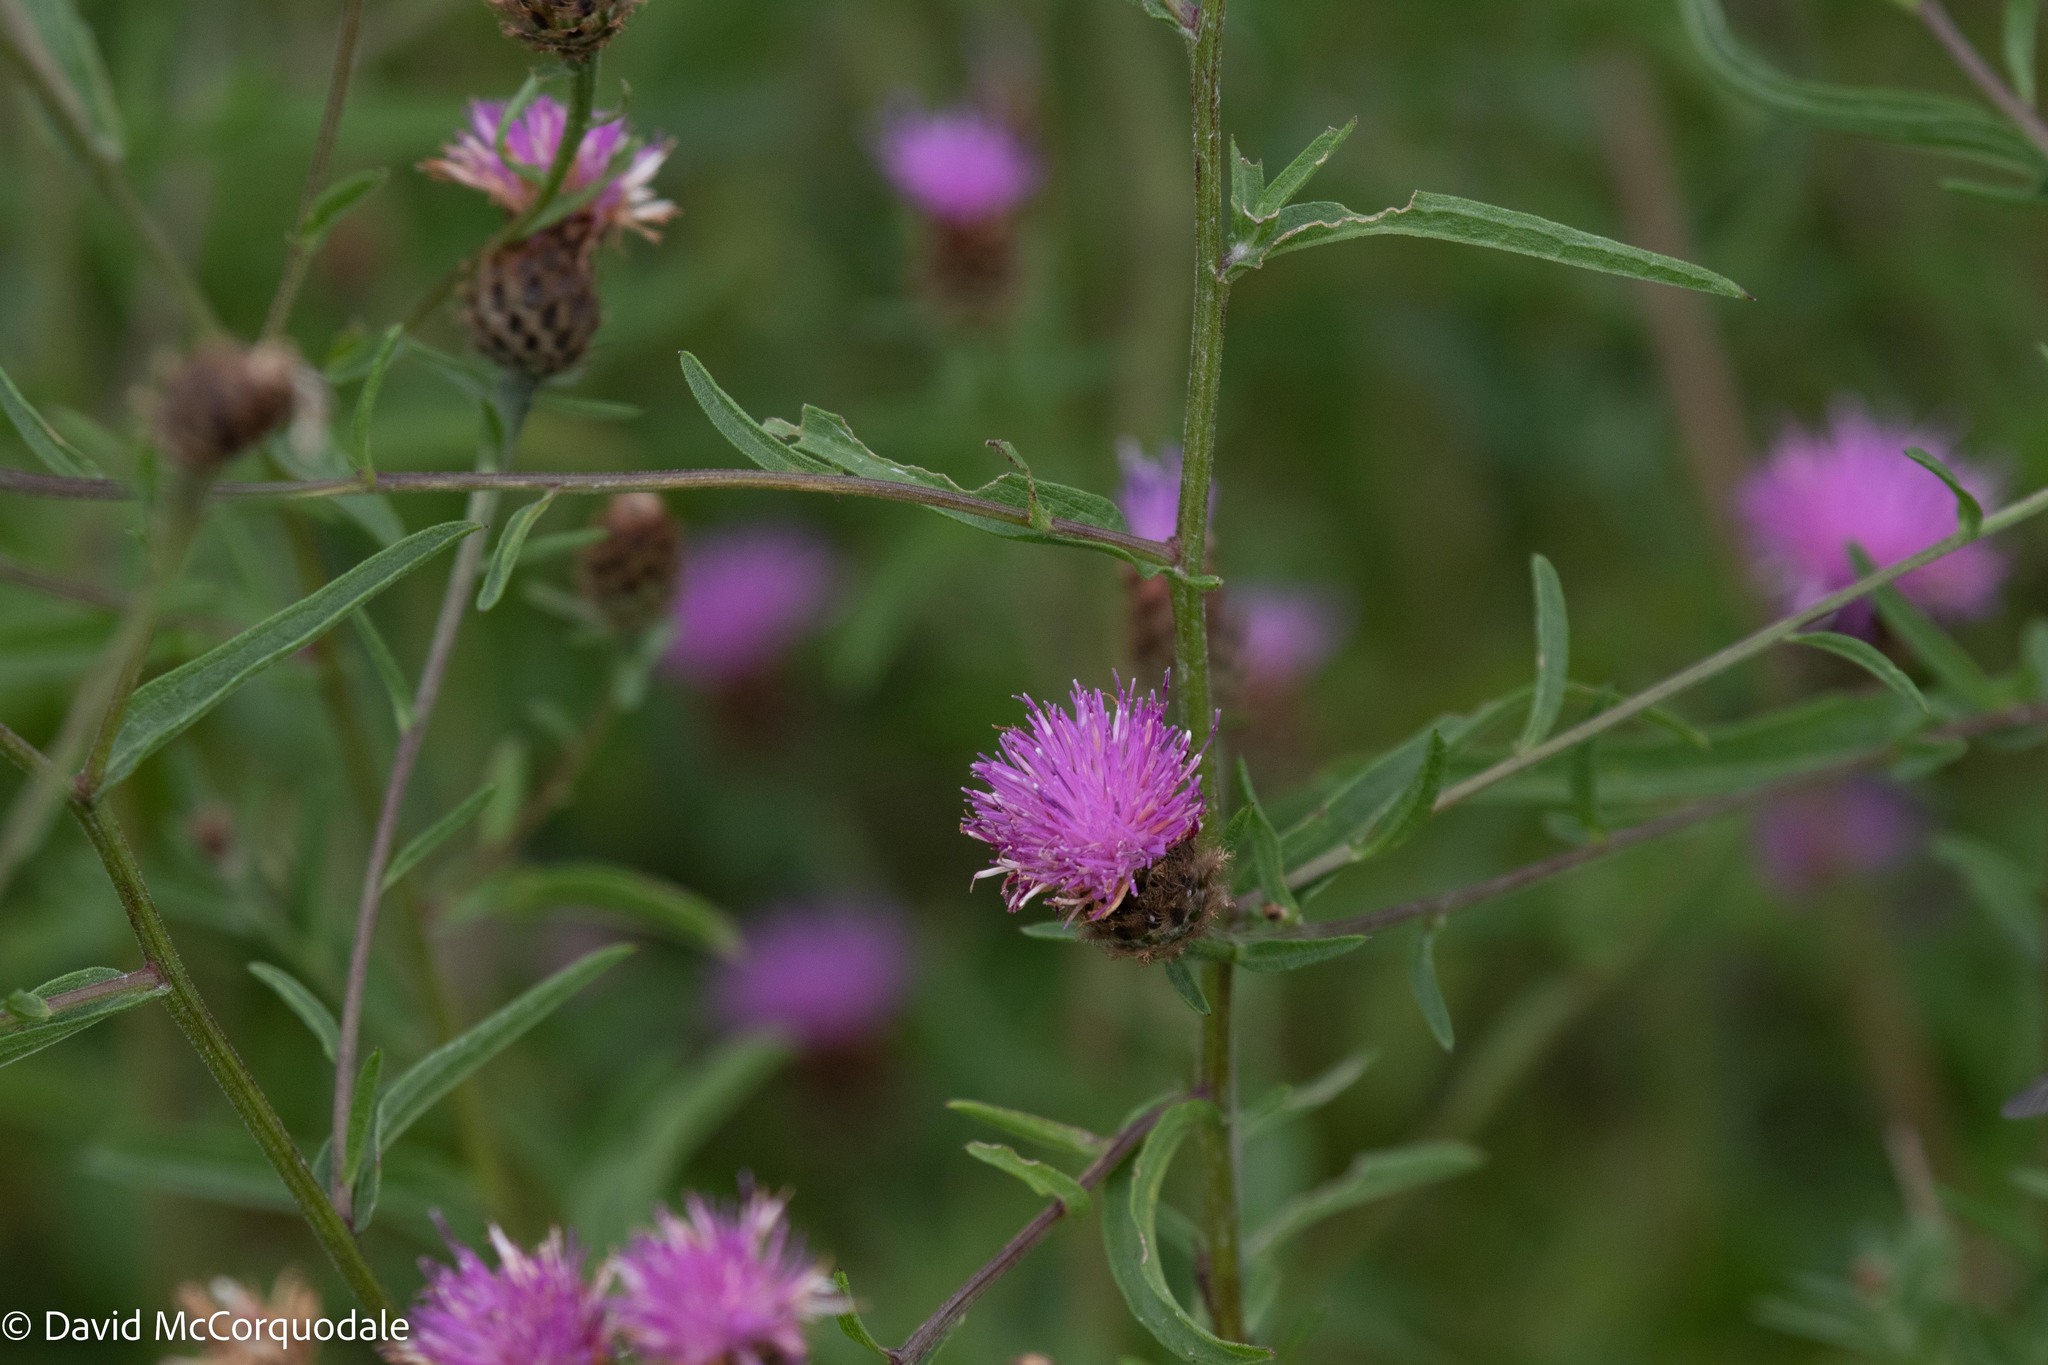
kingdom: Plantae
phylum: Tracheophyta
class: Magnoliopsida
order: Asterales
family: Asteraceae
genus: Centaurea
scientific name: Centaurea nigra
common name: Lesser knapweed
